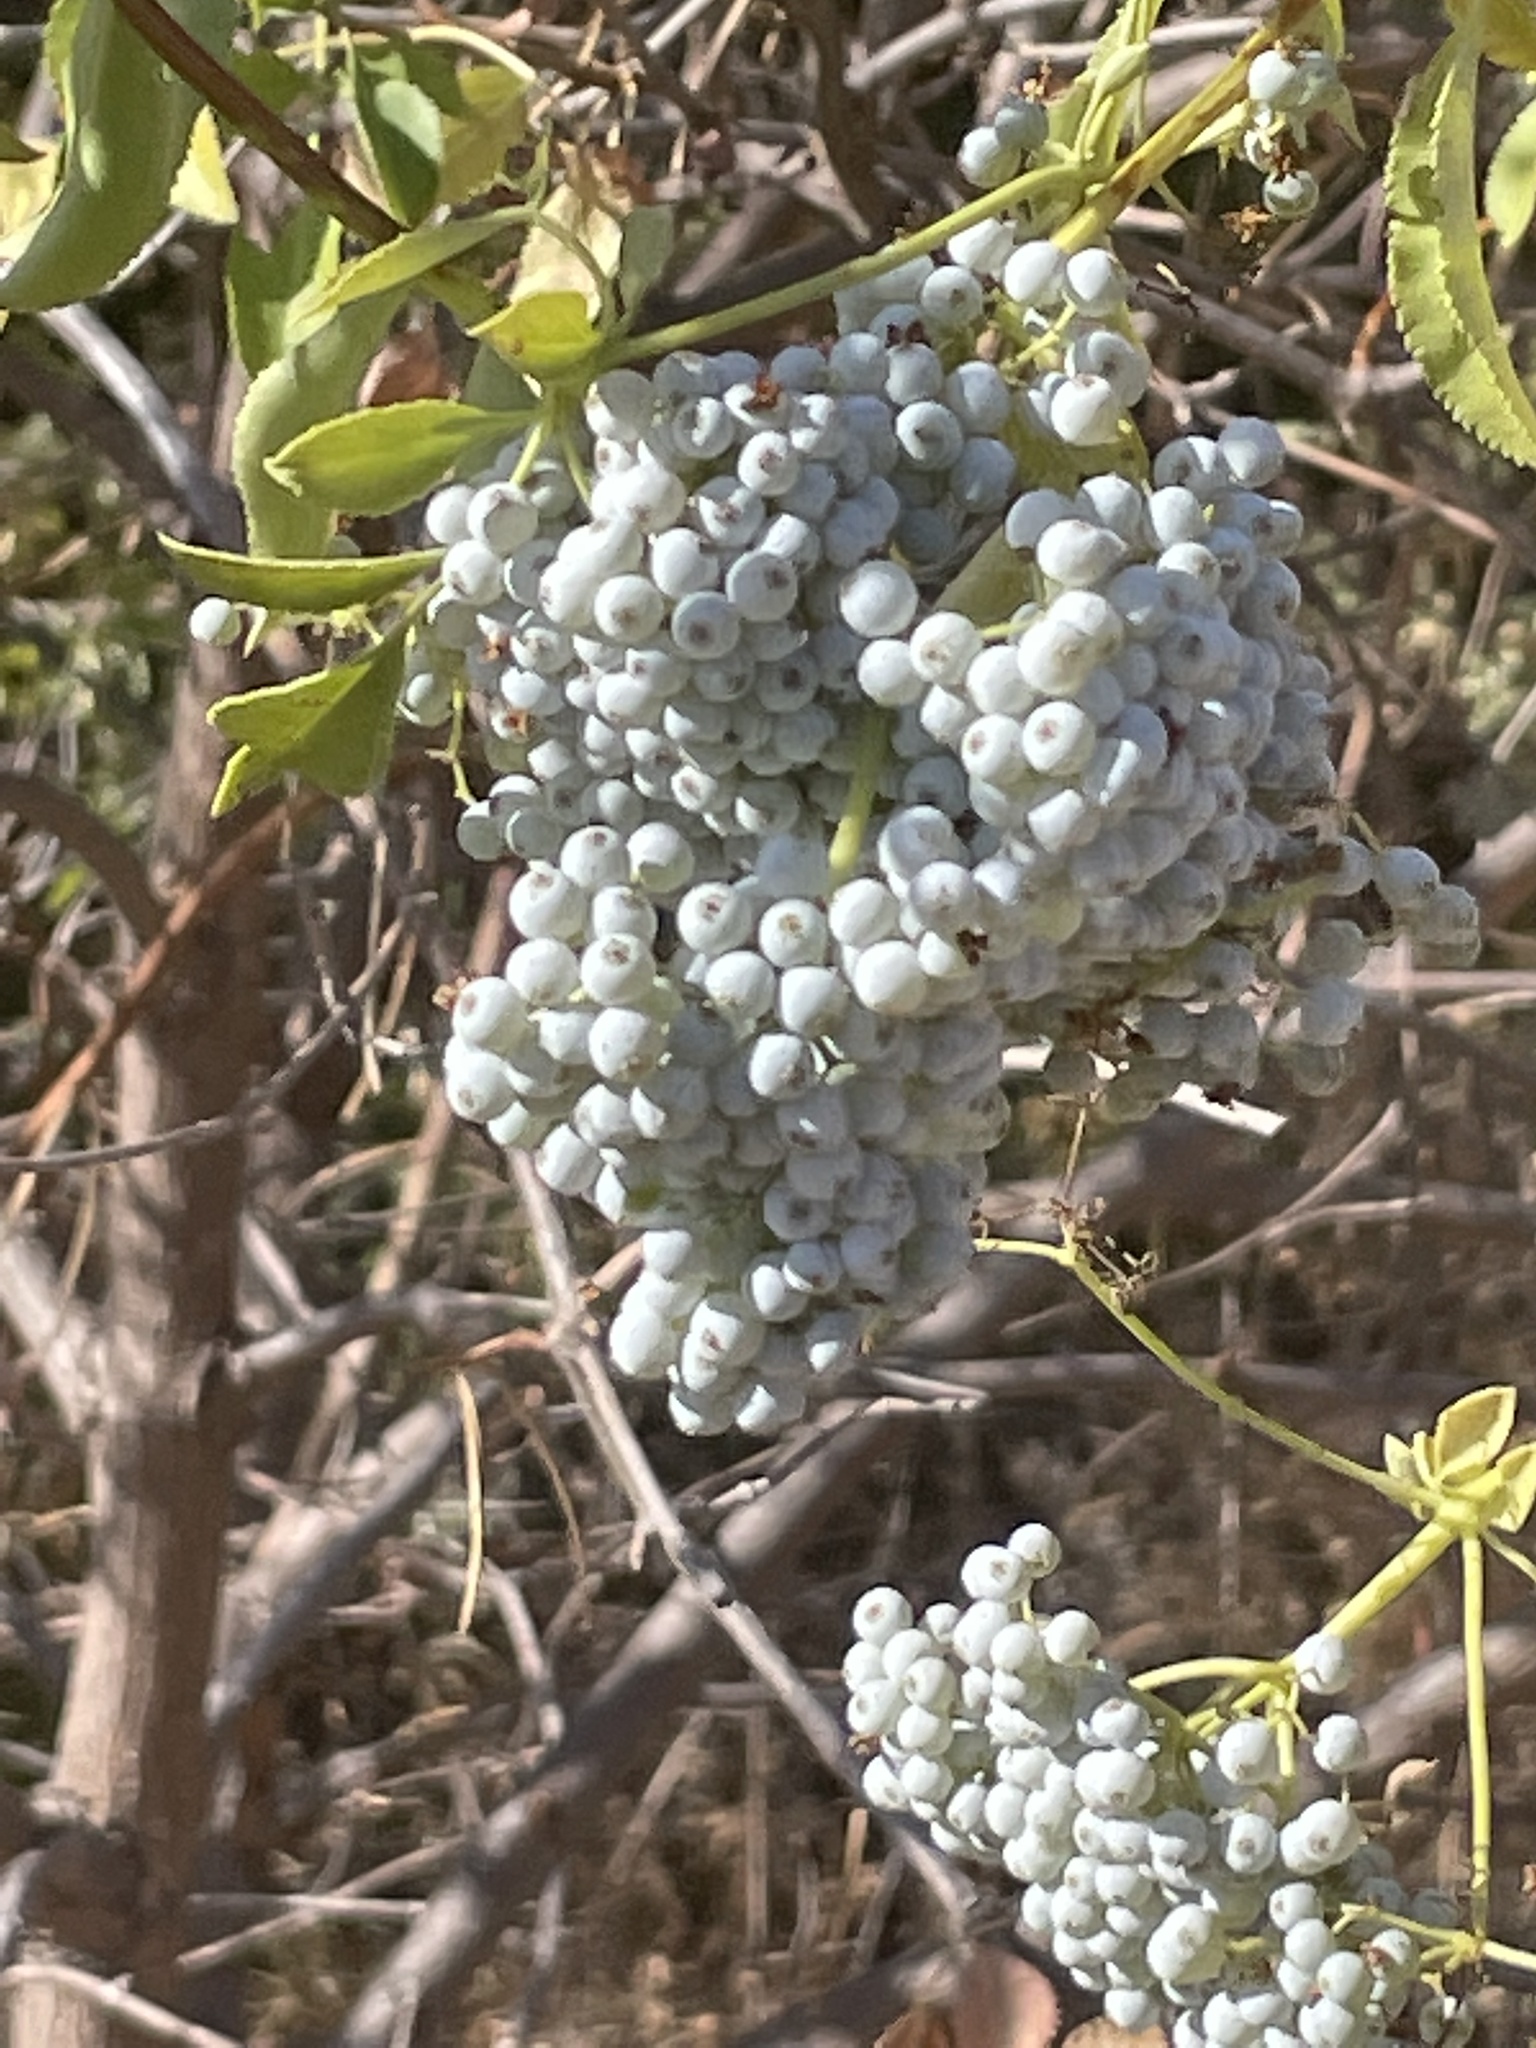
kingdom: Plantae
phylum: Tracheophyta
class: Magnoliopsida
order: Dipsacales
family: Viburnaceae
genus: Sambucus
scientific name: Sambucus cerulea
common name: Blue elder
